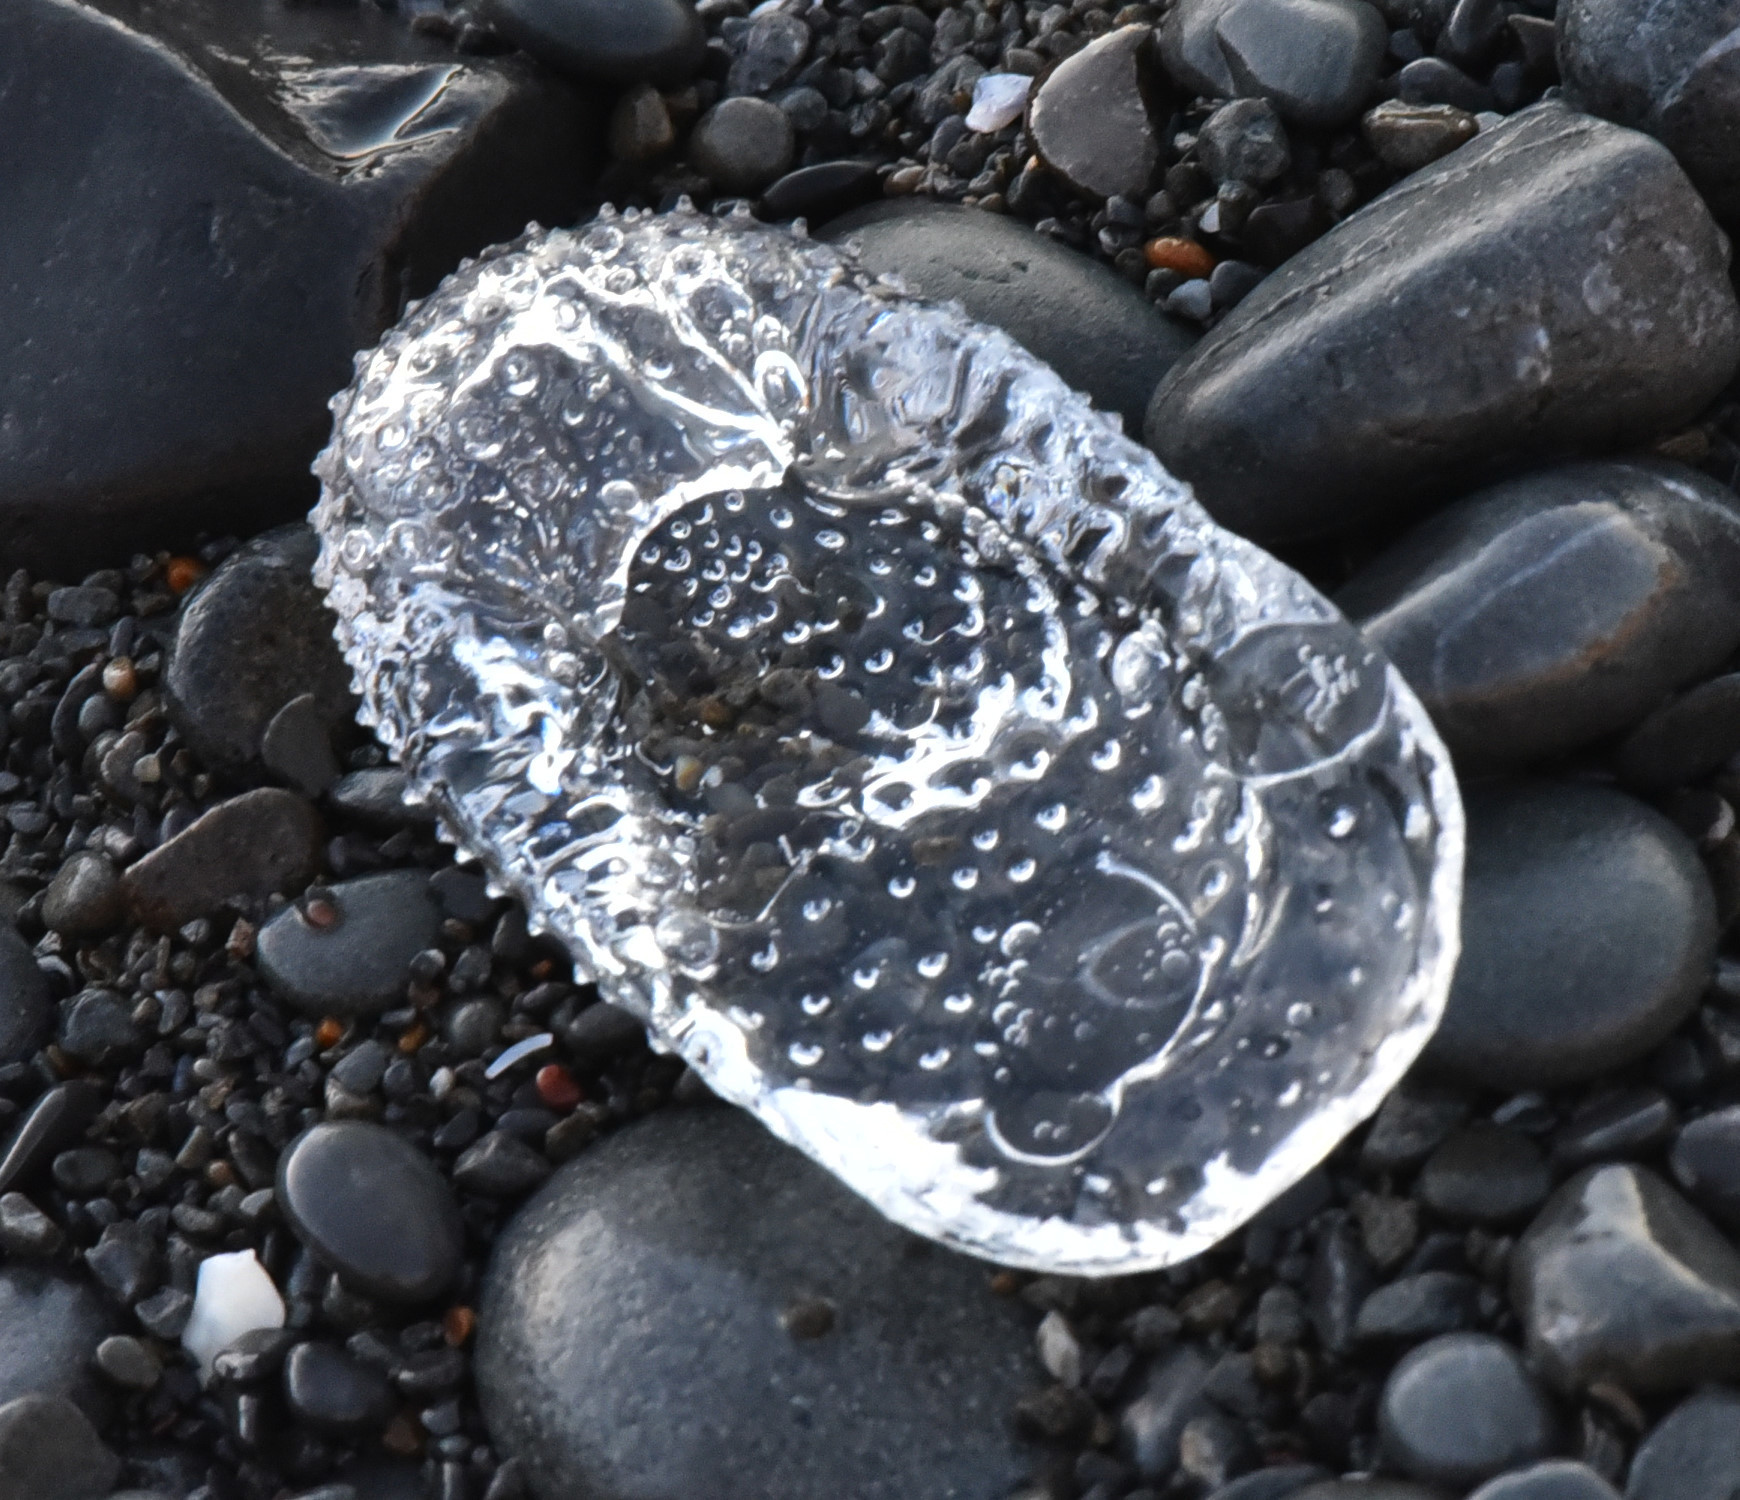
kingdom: Animalia
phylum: Mollusca
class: Gastropoda
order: Pteropoda
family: Cymbuliidae
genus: Corolla
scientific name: Corolla spectabilis
